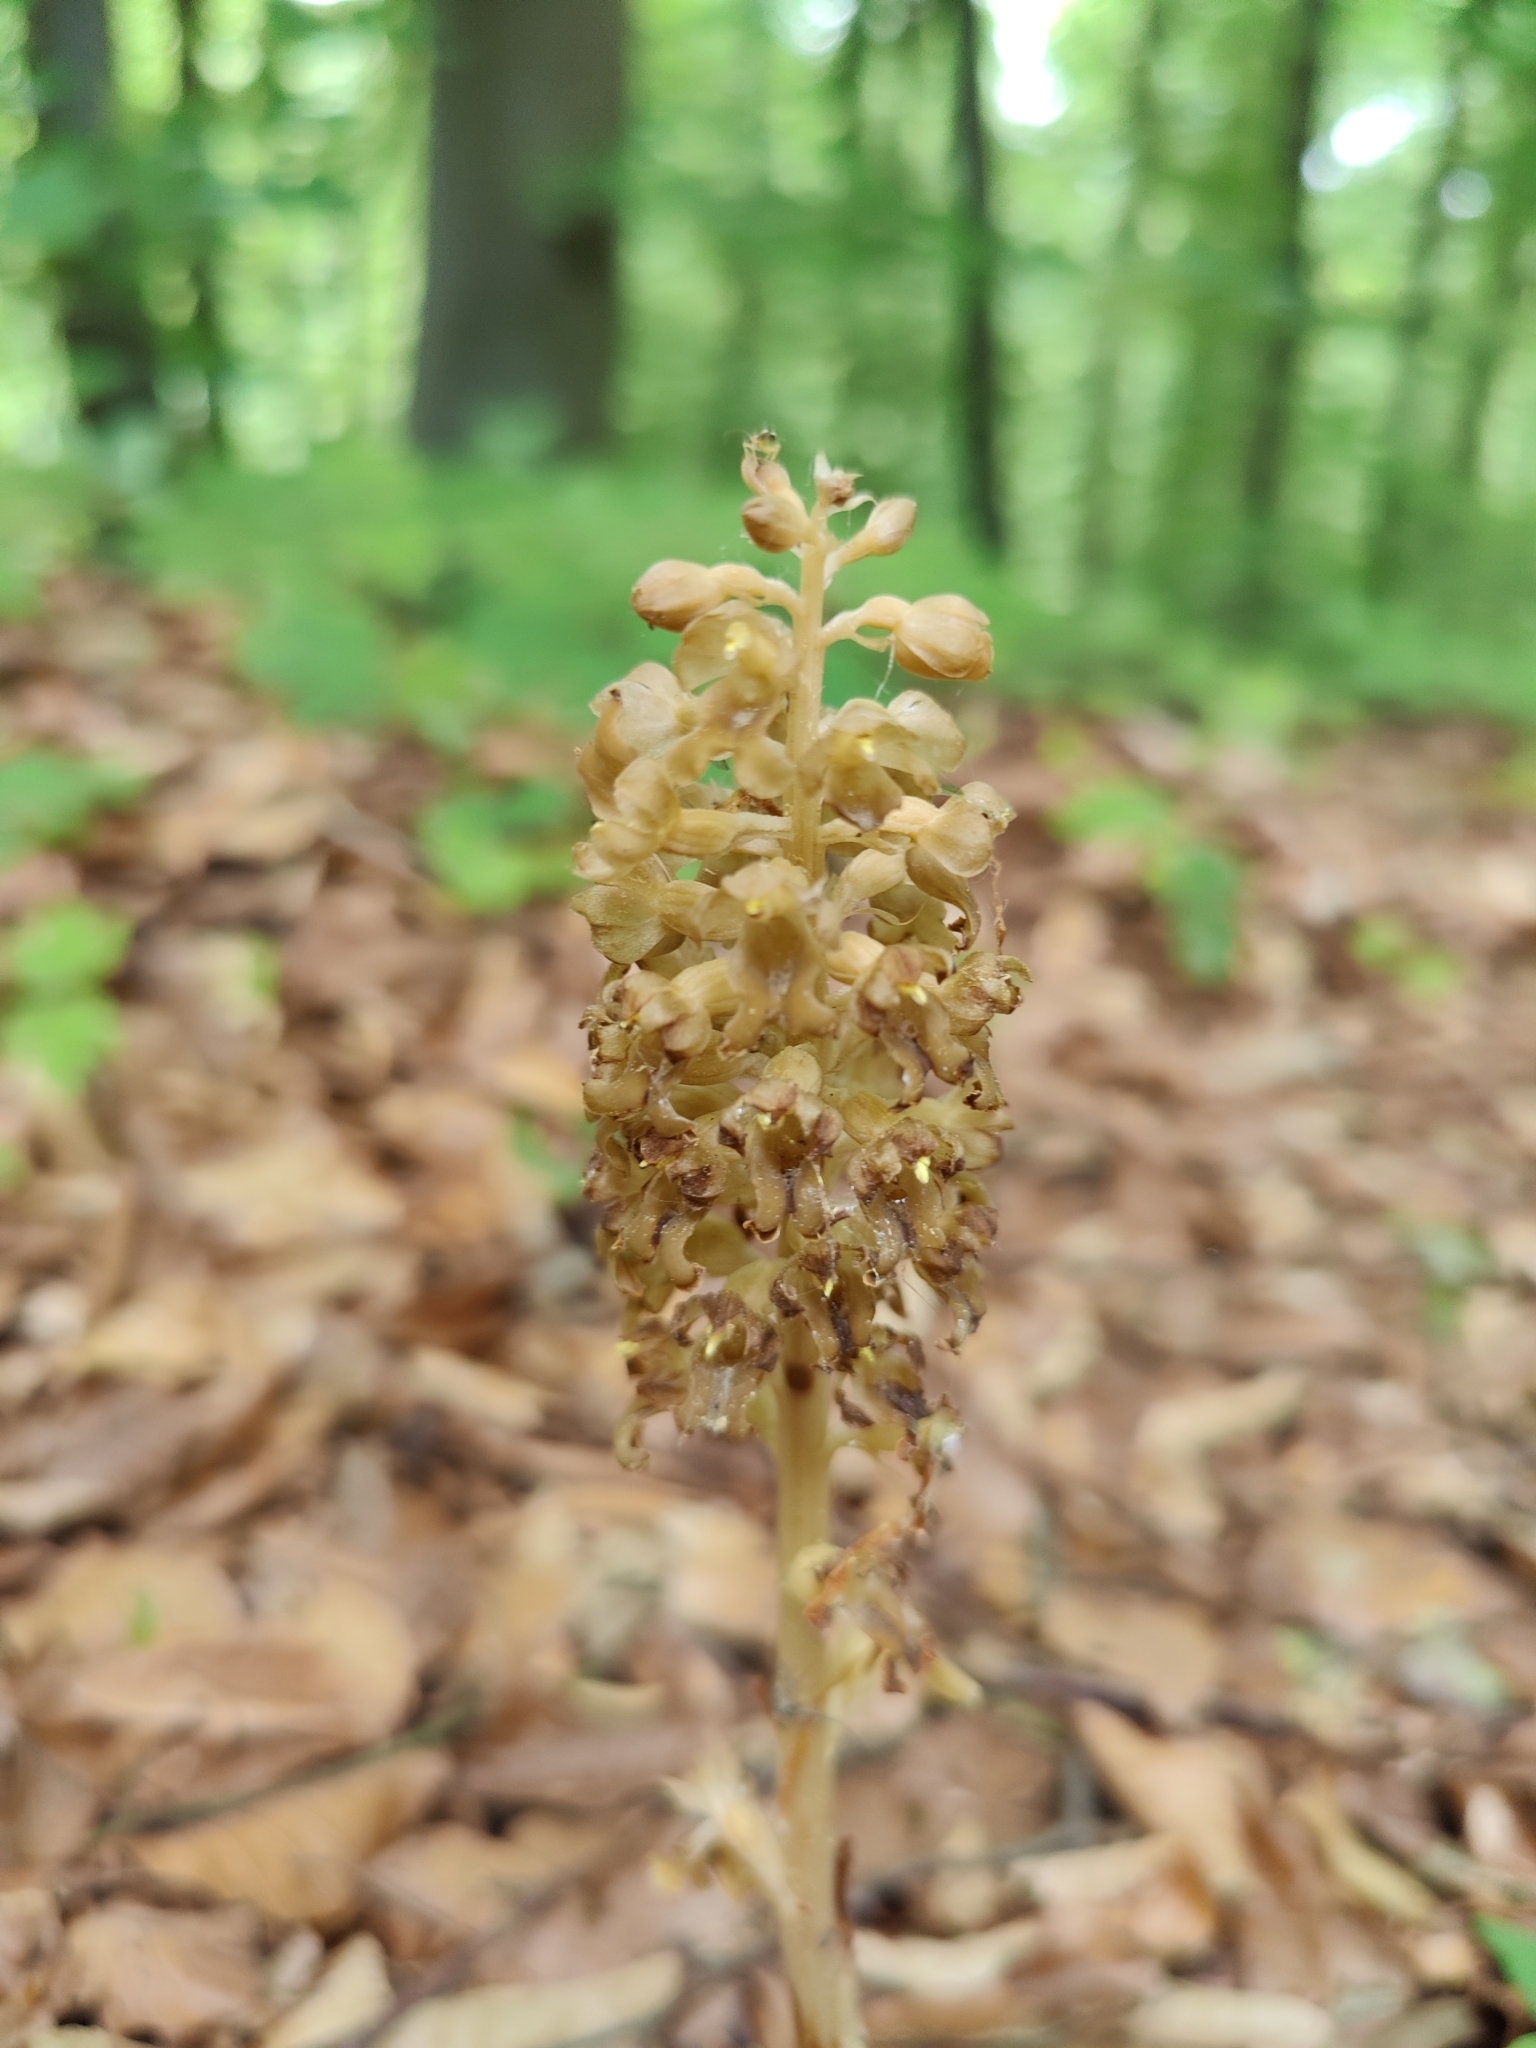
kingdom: Plantae
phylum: Tracheophyta
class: Liliopsida
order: Asparagales
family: Orchidaceae
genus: Neottia
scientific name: Neottia nidus-avis
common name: Bird's-nest orchid
